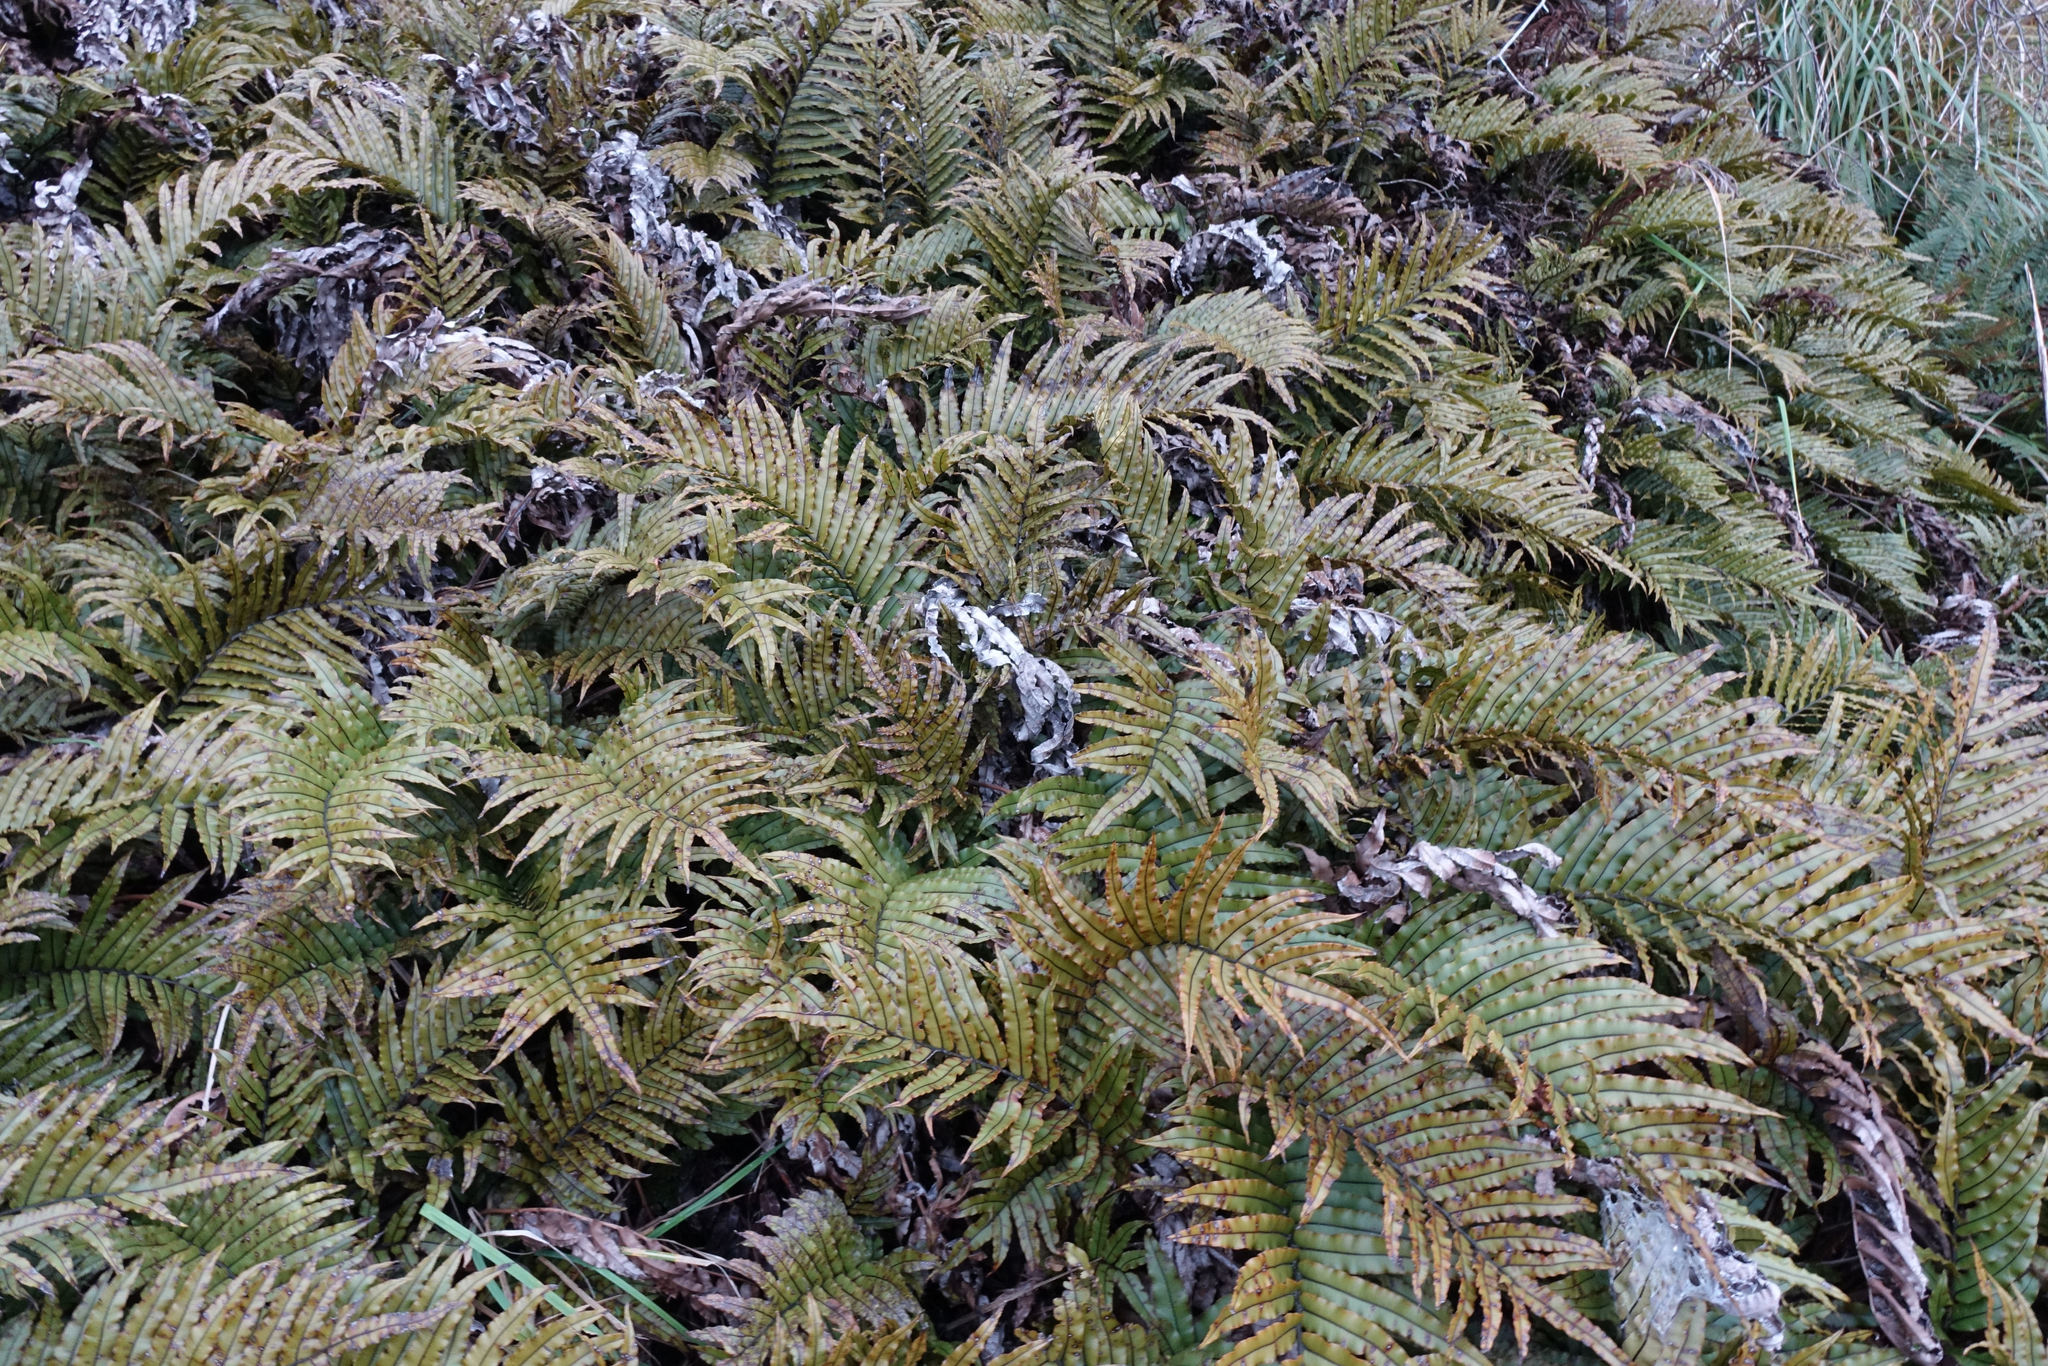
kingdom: Plantae
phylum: Tracheophyta
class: Polypodiopsida
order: Polypodiales
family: Blechnaceae
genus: Parablechnum
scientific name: Parablechnum montanum
